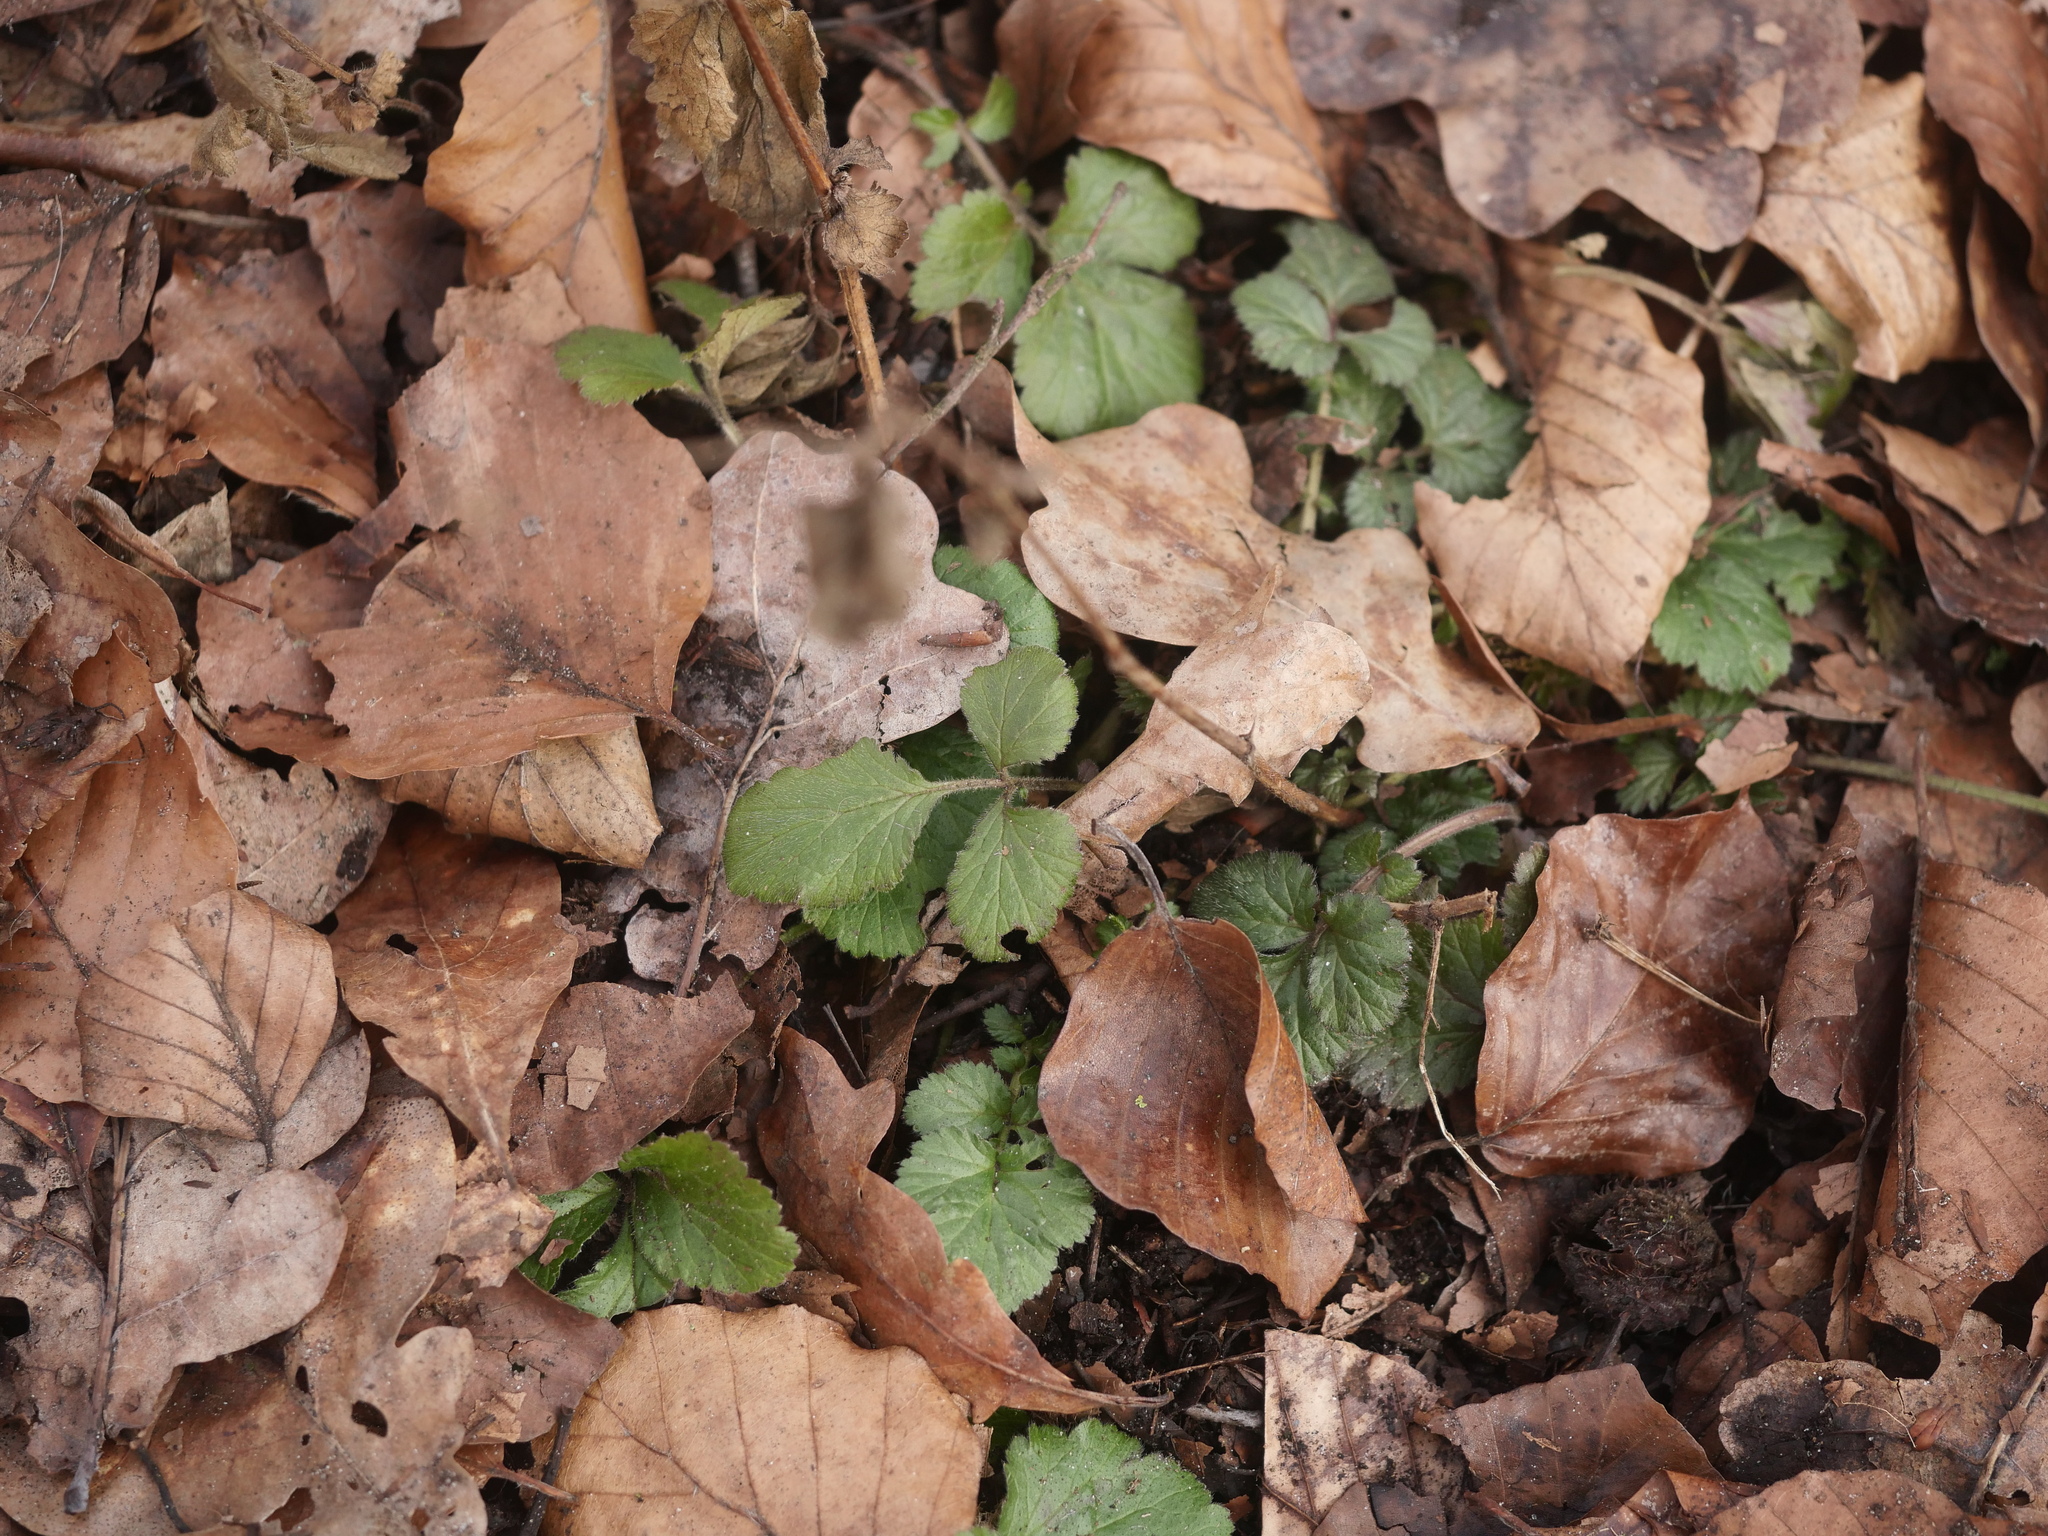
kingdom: Plantae
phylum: Tracheophyta
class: Magnoliopsida
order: Rosales
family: Rosaceae
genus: Geum
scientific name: Geum urbanum
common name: Wood avens
